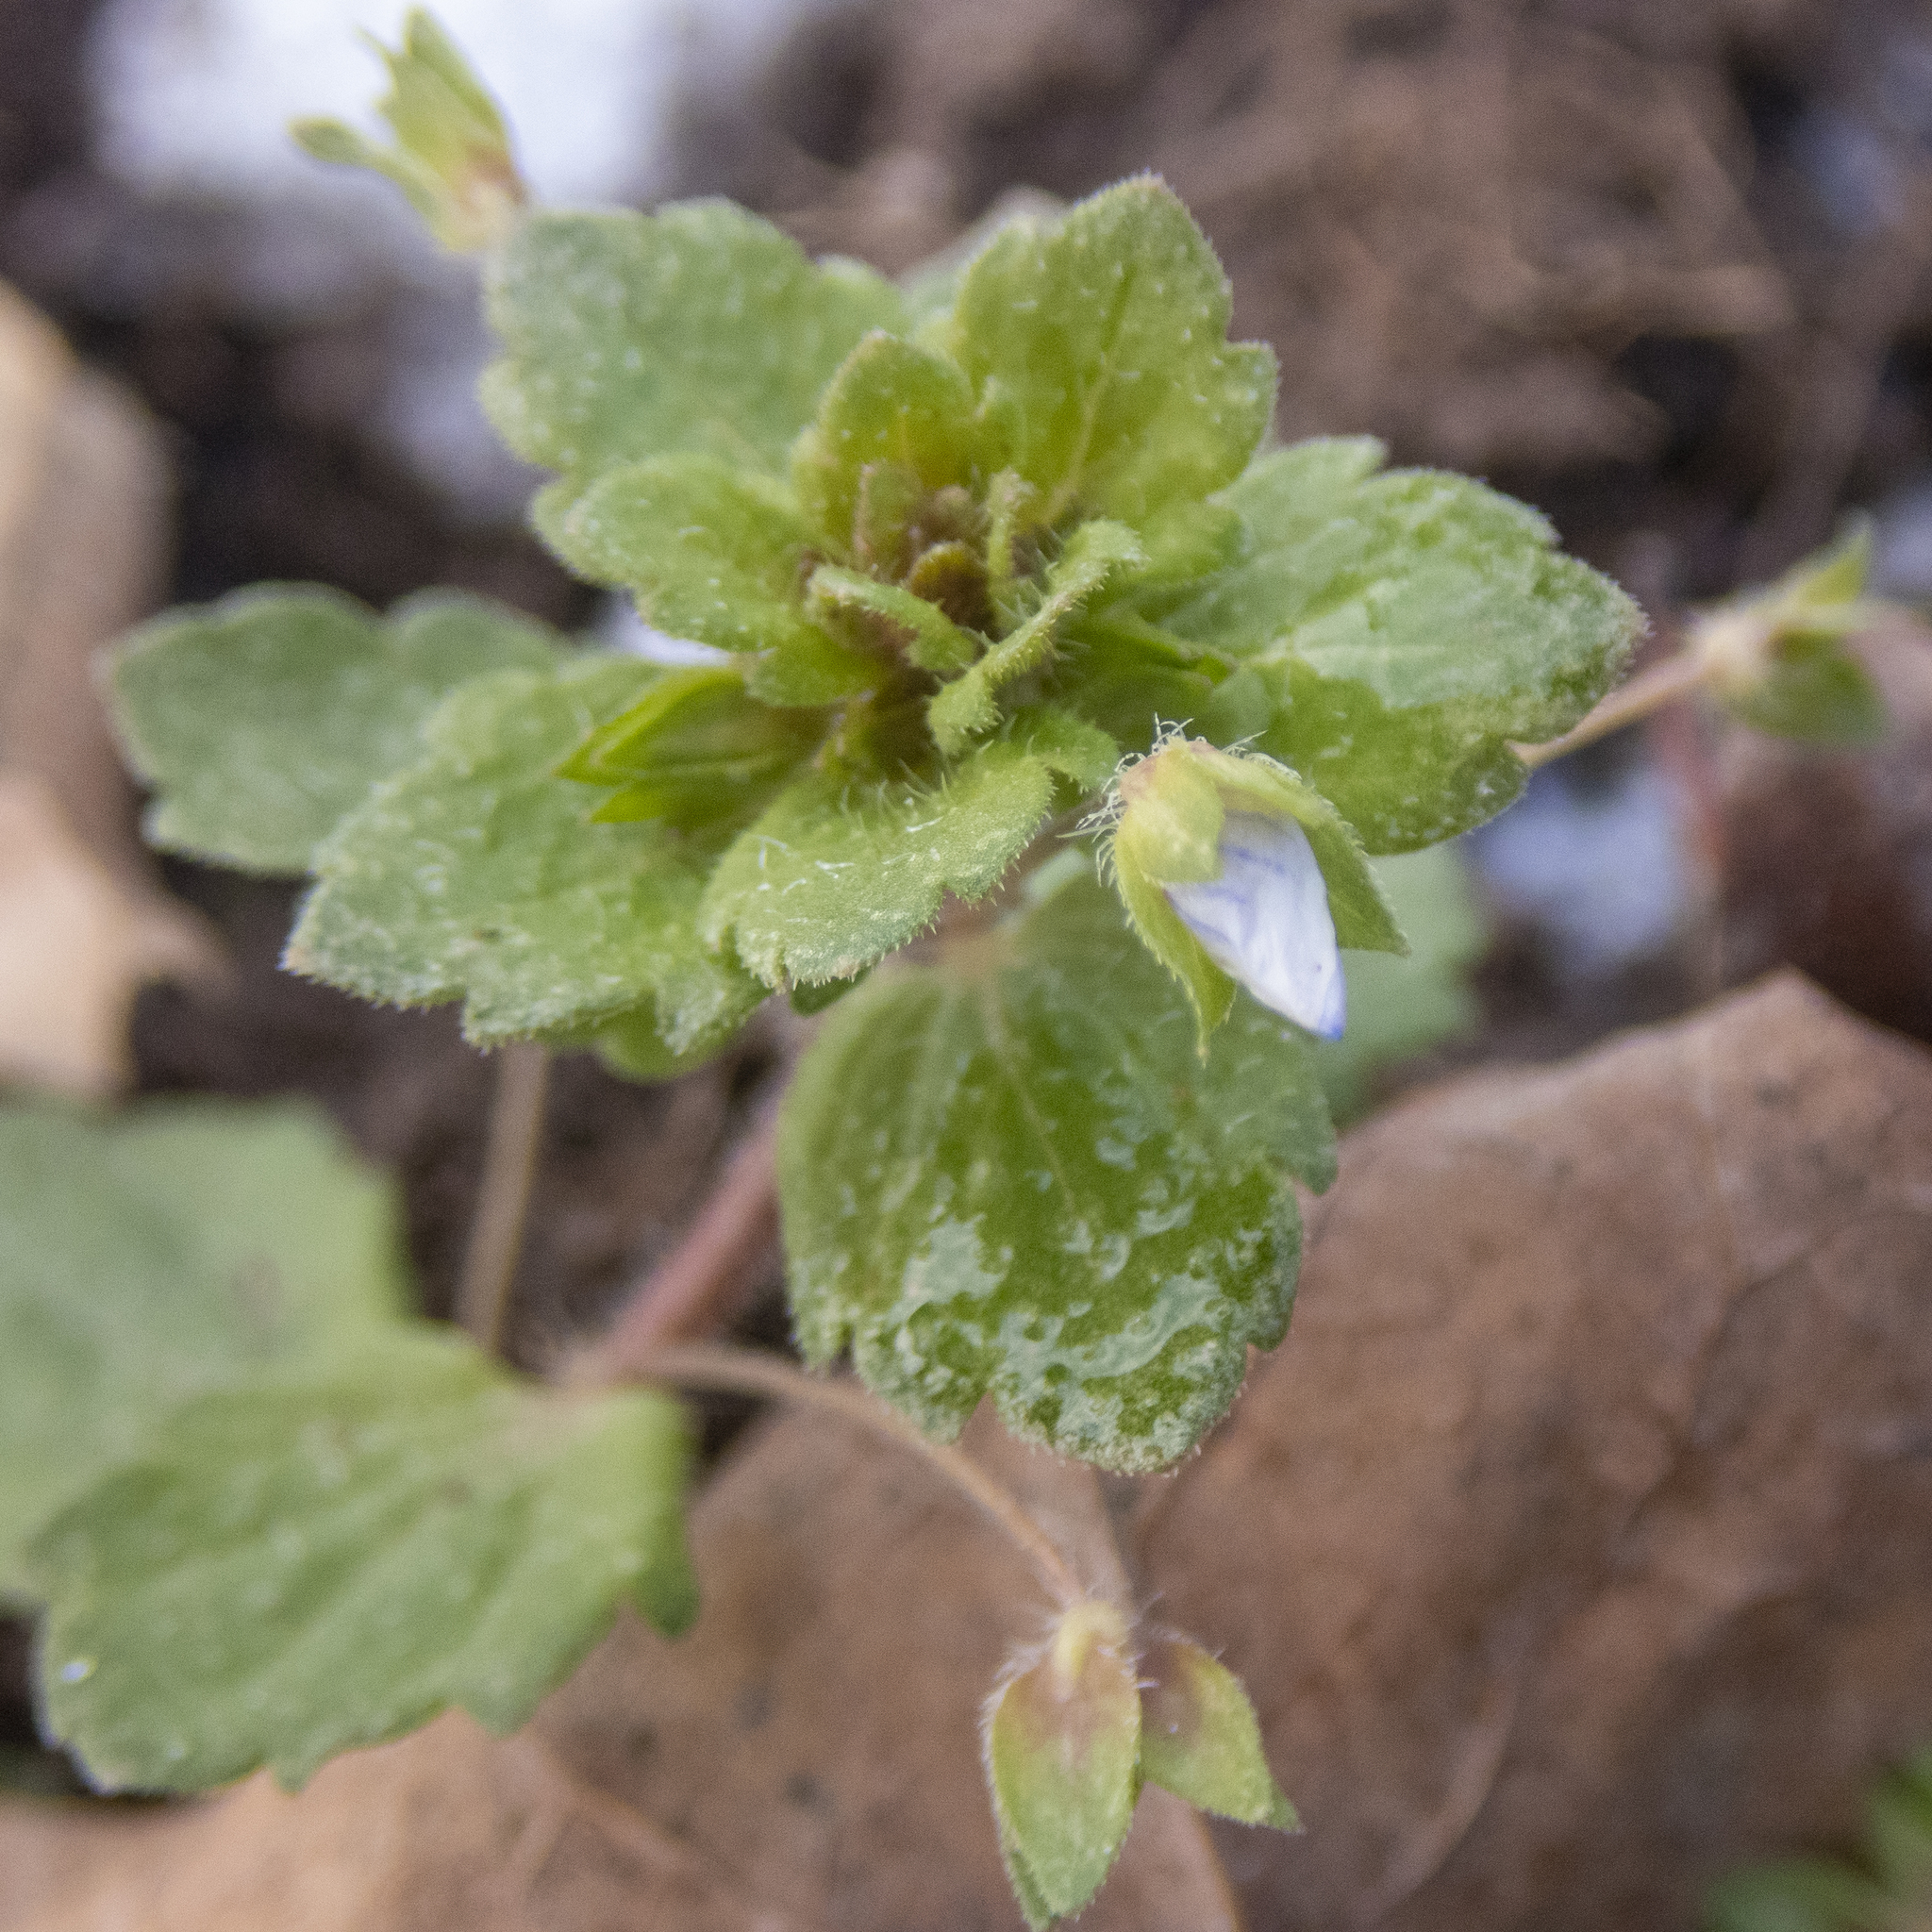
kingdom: Plantae
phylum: Tracheophyta
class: Magnoliopsida
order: Lamiales
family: Plantaginaceae
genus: Veronica
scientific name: Veronica persica
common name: Common field-speedwell
